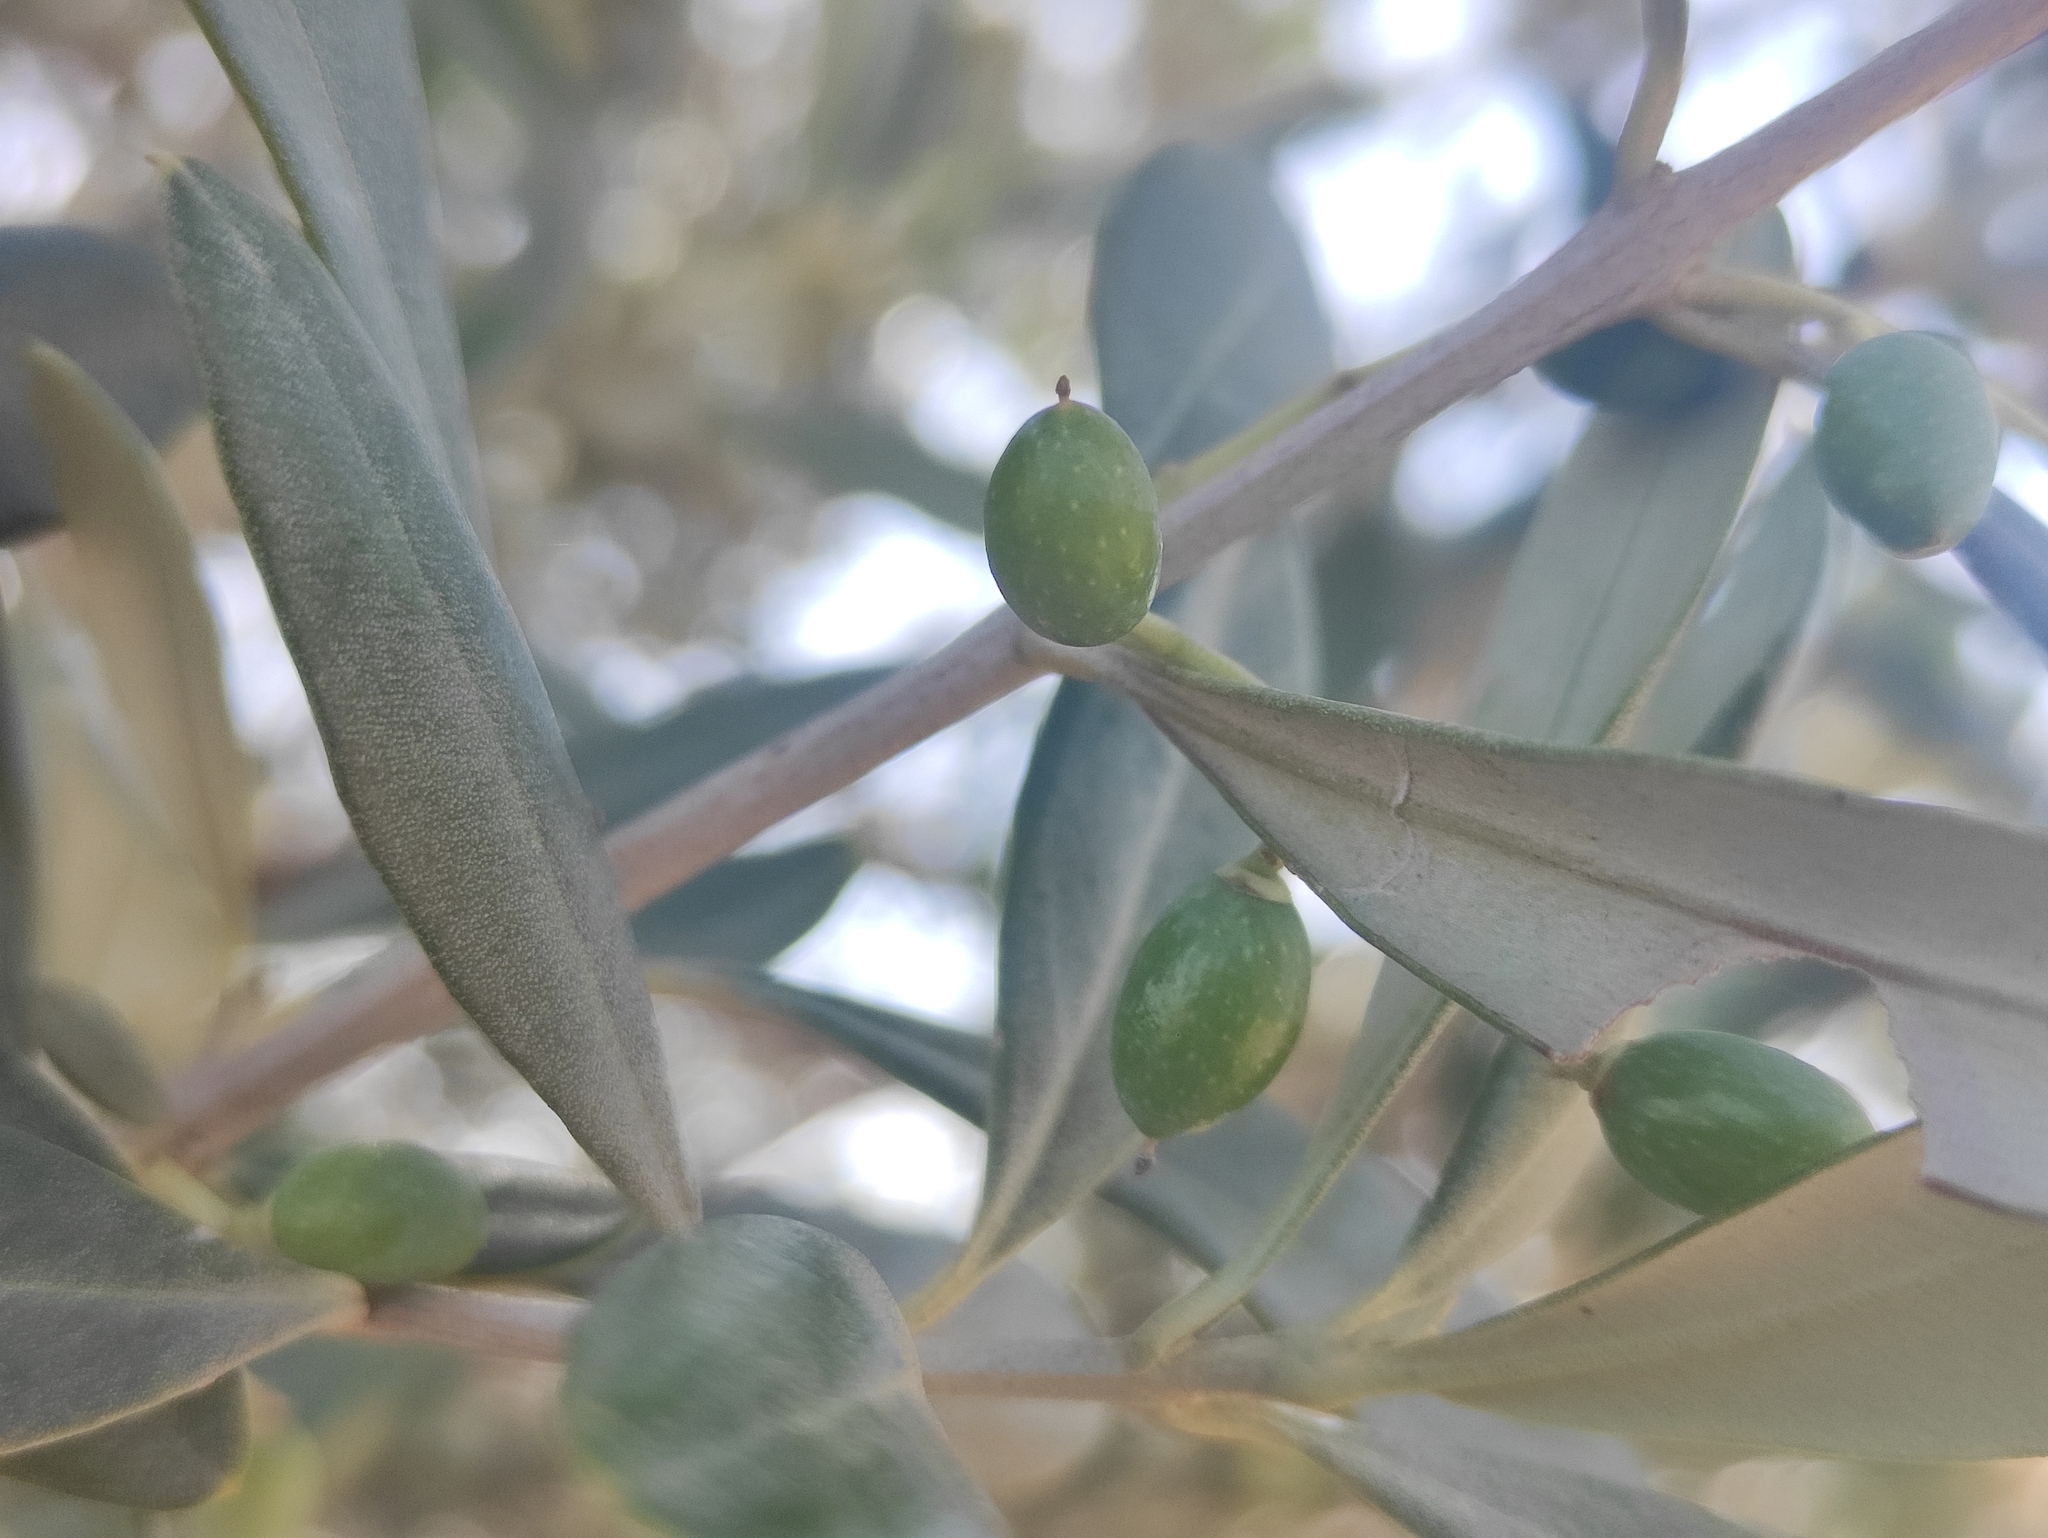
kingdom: Plantae
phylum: Tracheophyta
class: Magnoliopsida
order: Lamiales
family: Oleaceae
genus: Olea
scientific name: Olea europaea
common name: Olive
